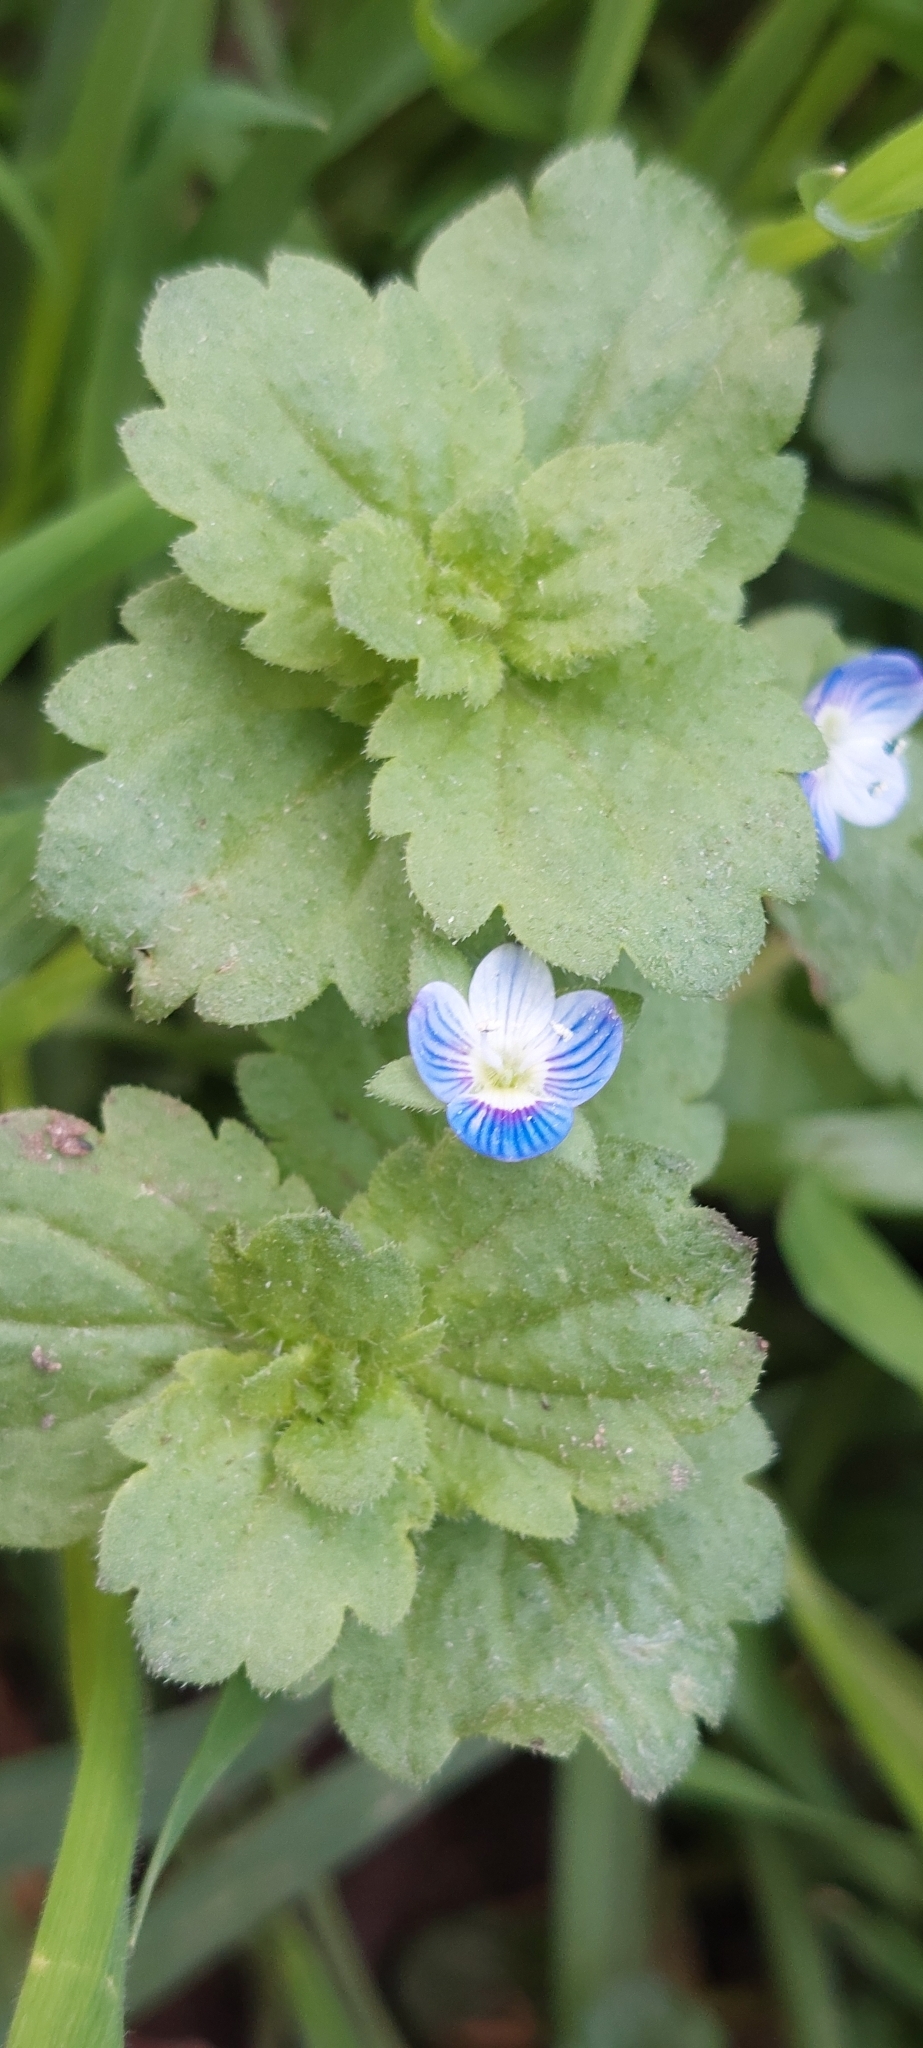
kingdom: Plantae
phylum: Tracheophyta
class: Magnoliopsida
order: Lamiales
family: Plantaginaceae
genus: Veronica
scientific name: Veronica persica
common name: Common field-speedwell
